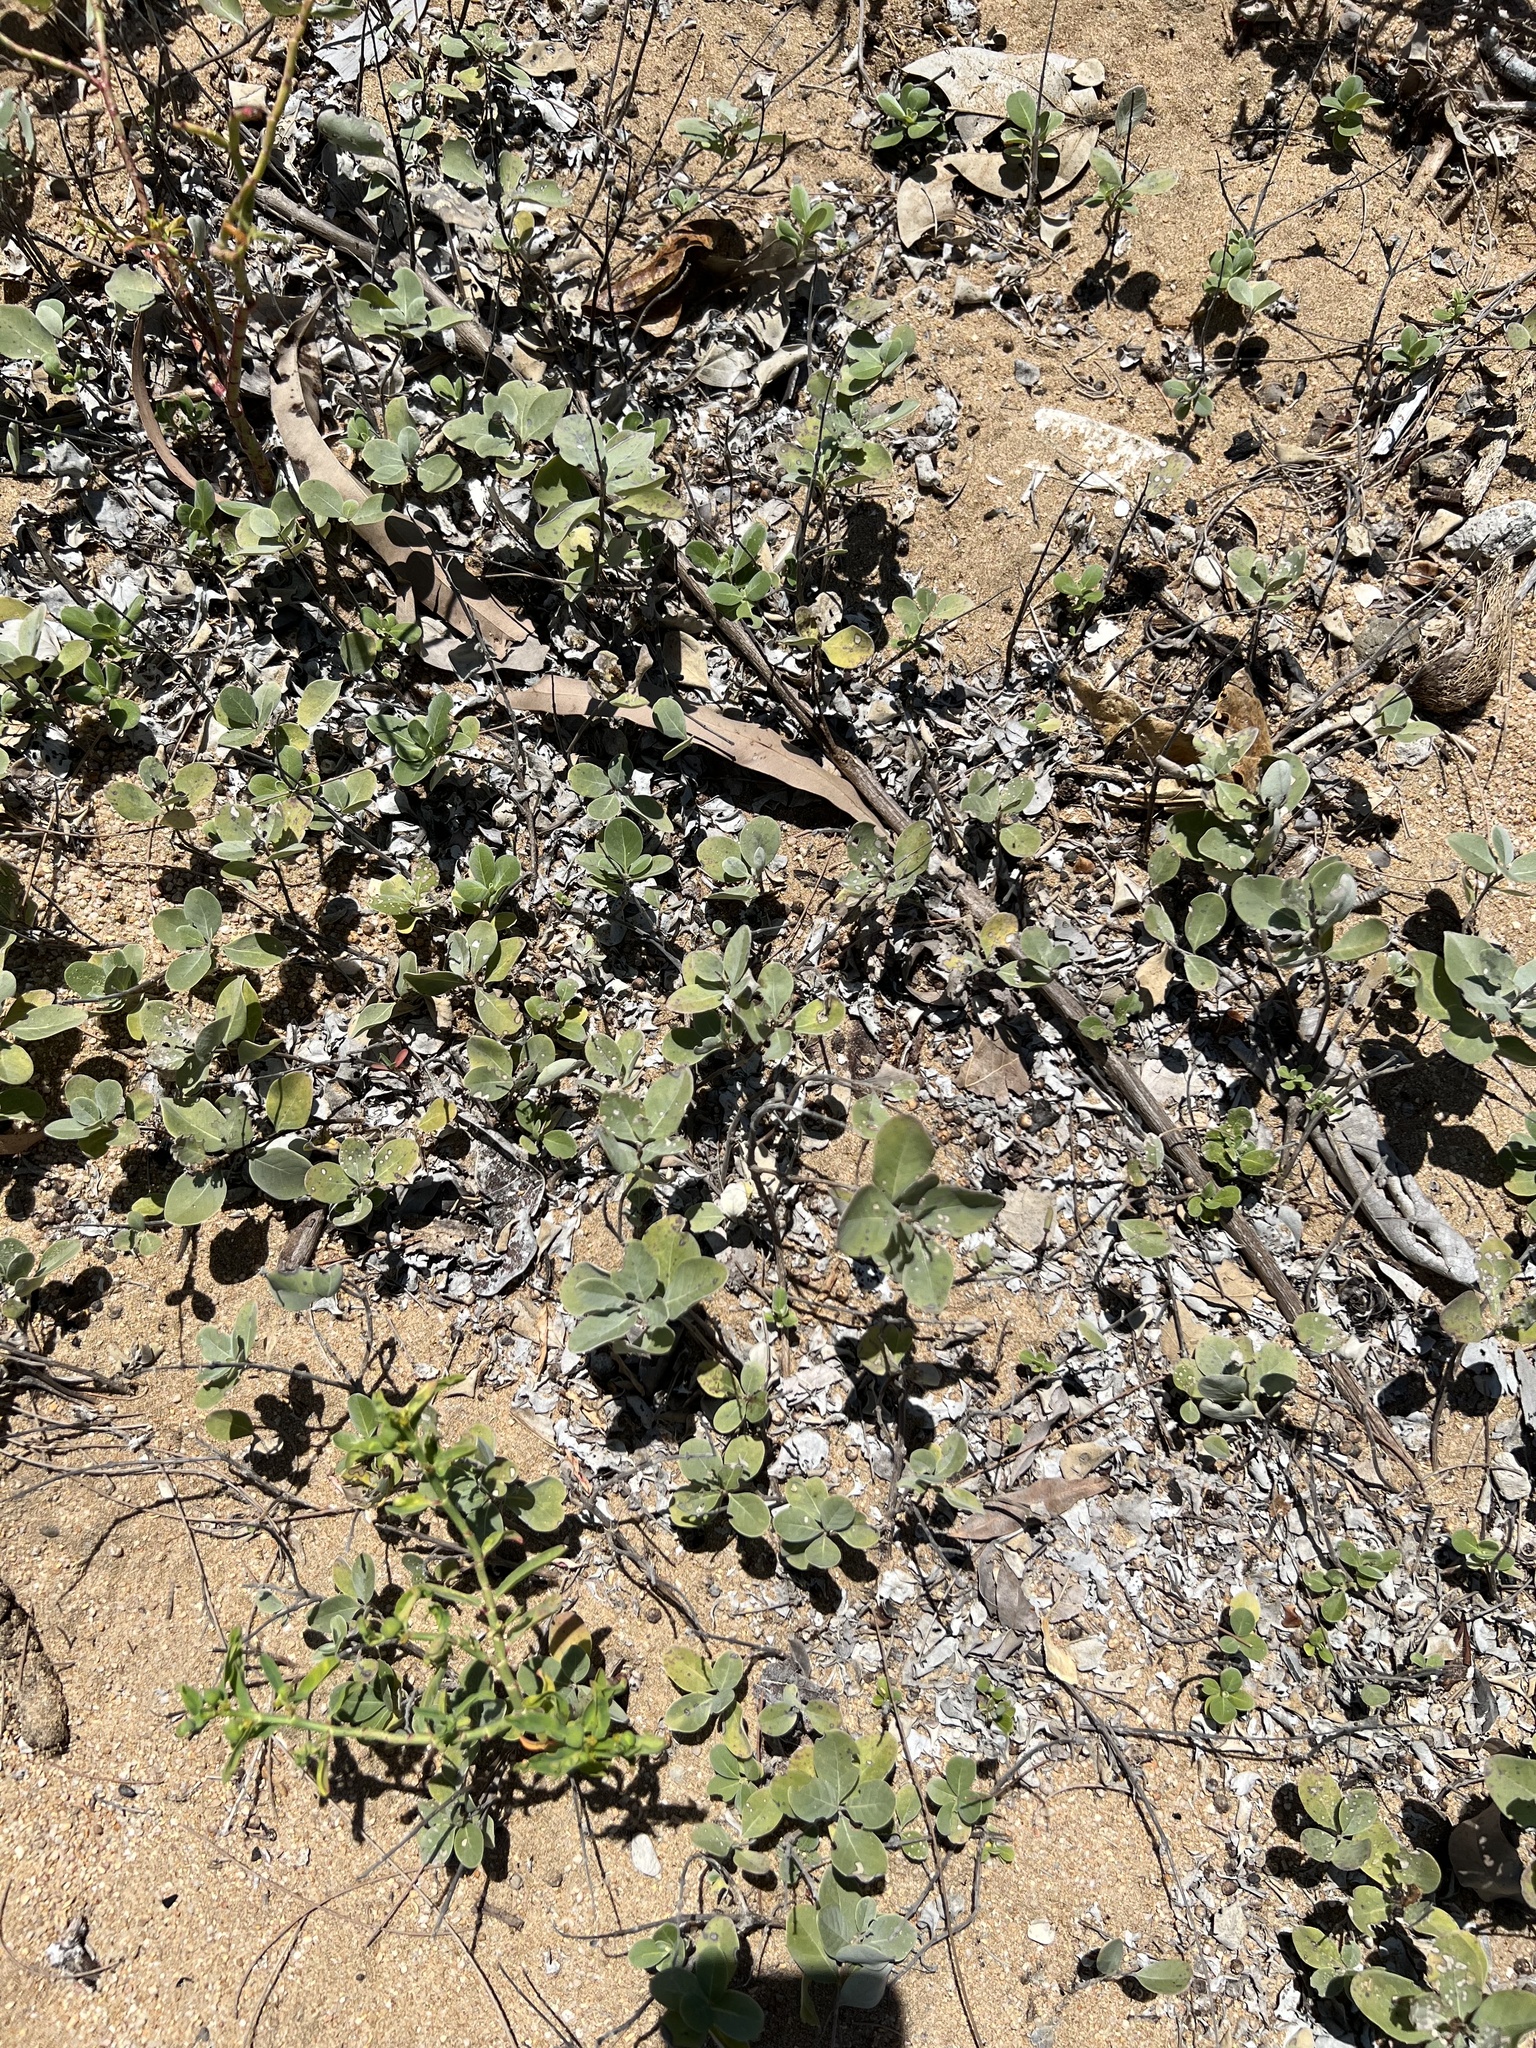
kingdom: Plantae
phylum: Tracheophyta
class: Magnoliopsida
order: Lamiales
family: Lamiaceae
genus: Vitex
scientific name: Vitex rotundifolia
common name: Beach vitex
